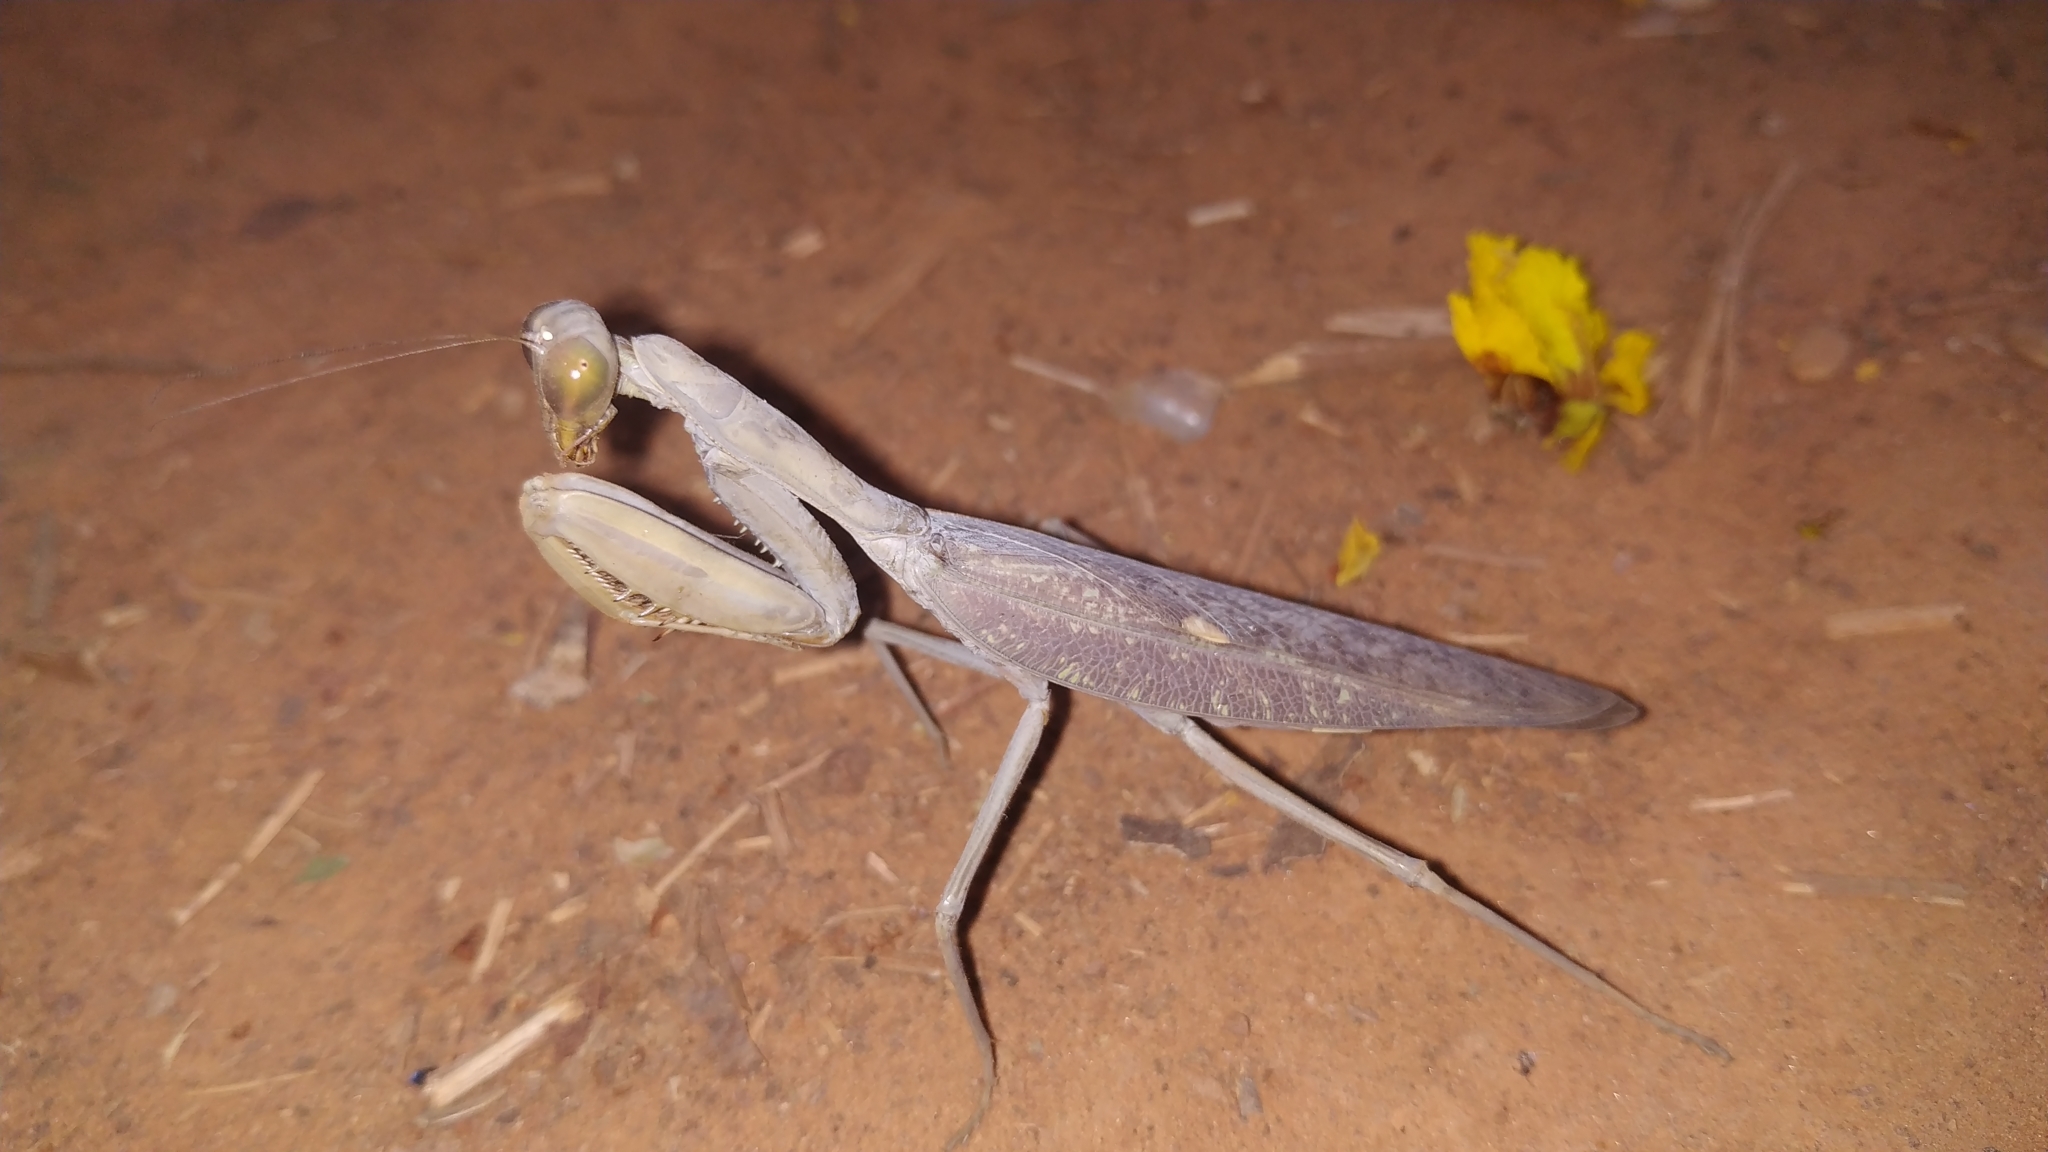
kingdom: Animalia
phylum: Arthropoda
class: Insecta
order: Mantodea
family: Mantidae
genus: Hierodula
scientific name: Hierodula tenuidentata
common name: Giant asian mantis
